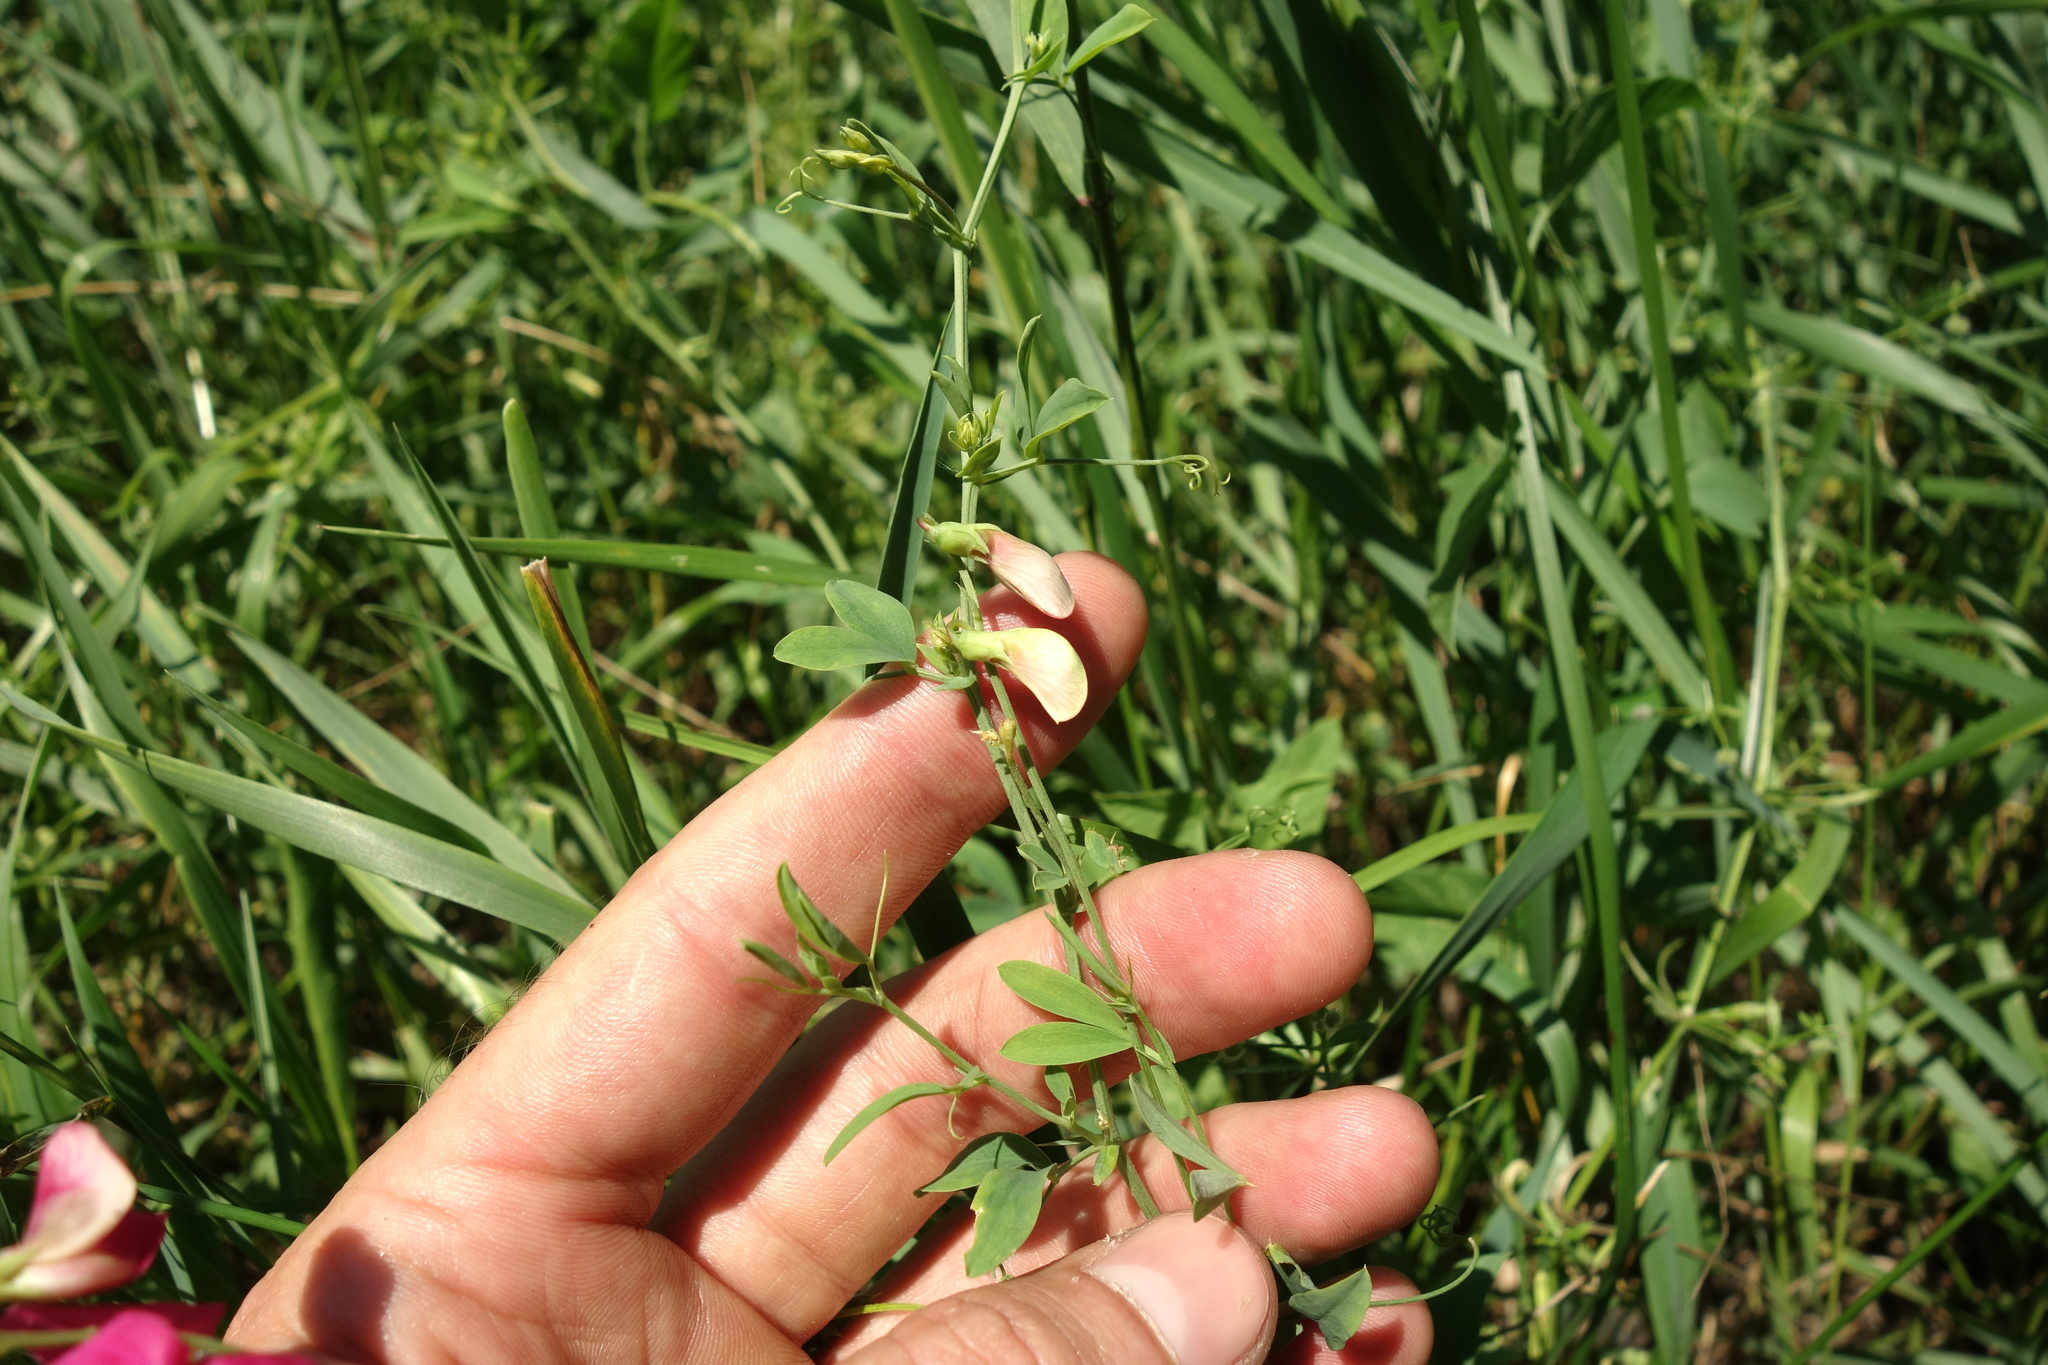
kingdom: Plantae
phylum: Tracheophyta
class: Magnoliopsida
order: Fabales
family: Fabaceae
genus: Lathyrus
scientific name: Lathyrus tuberosus
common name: Tuberous pea
